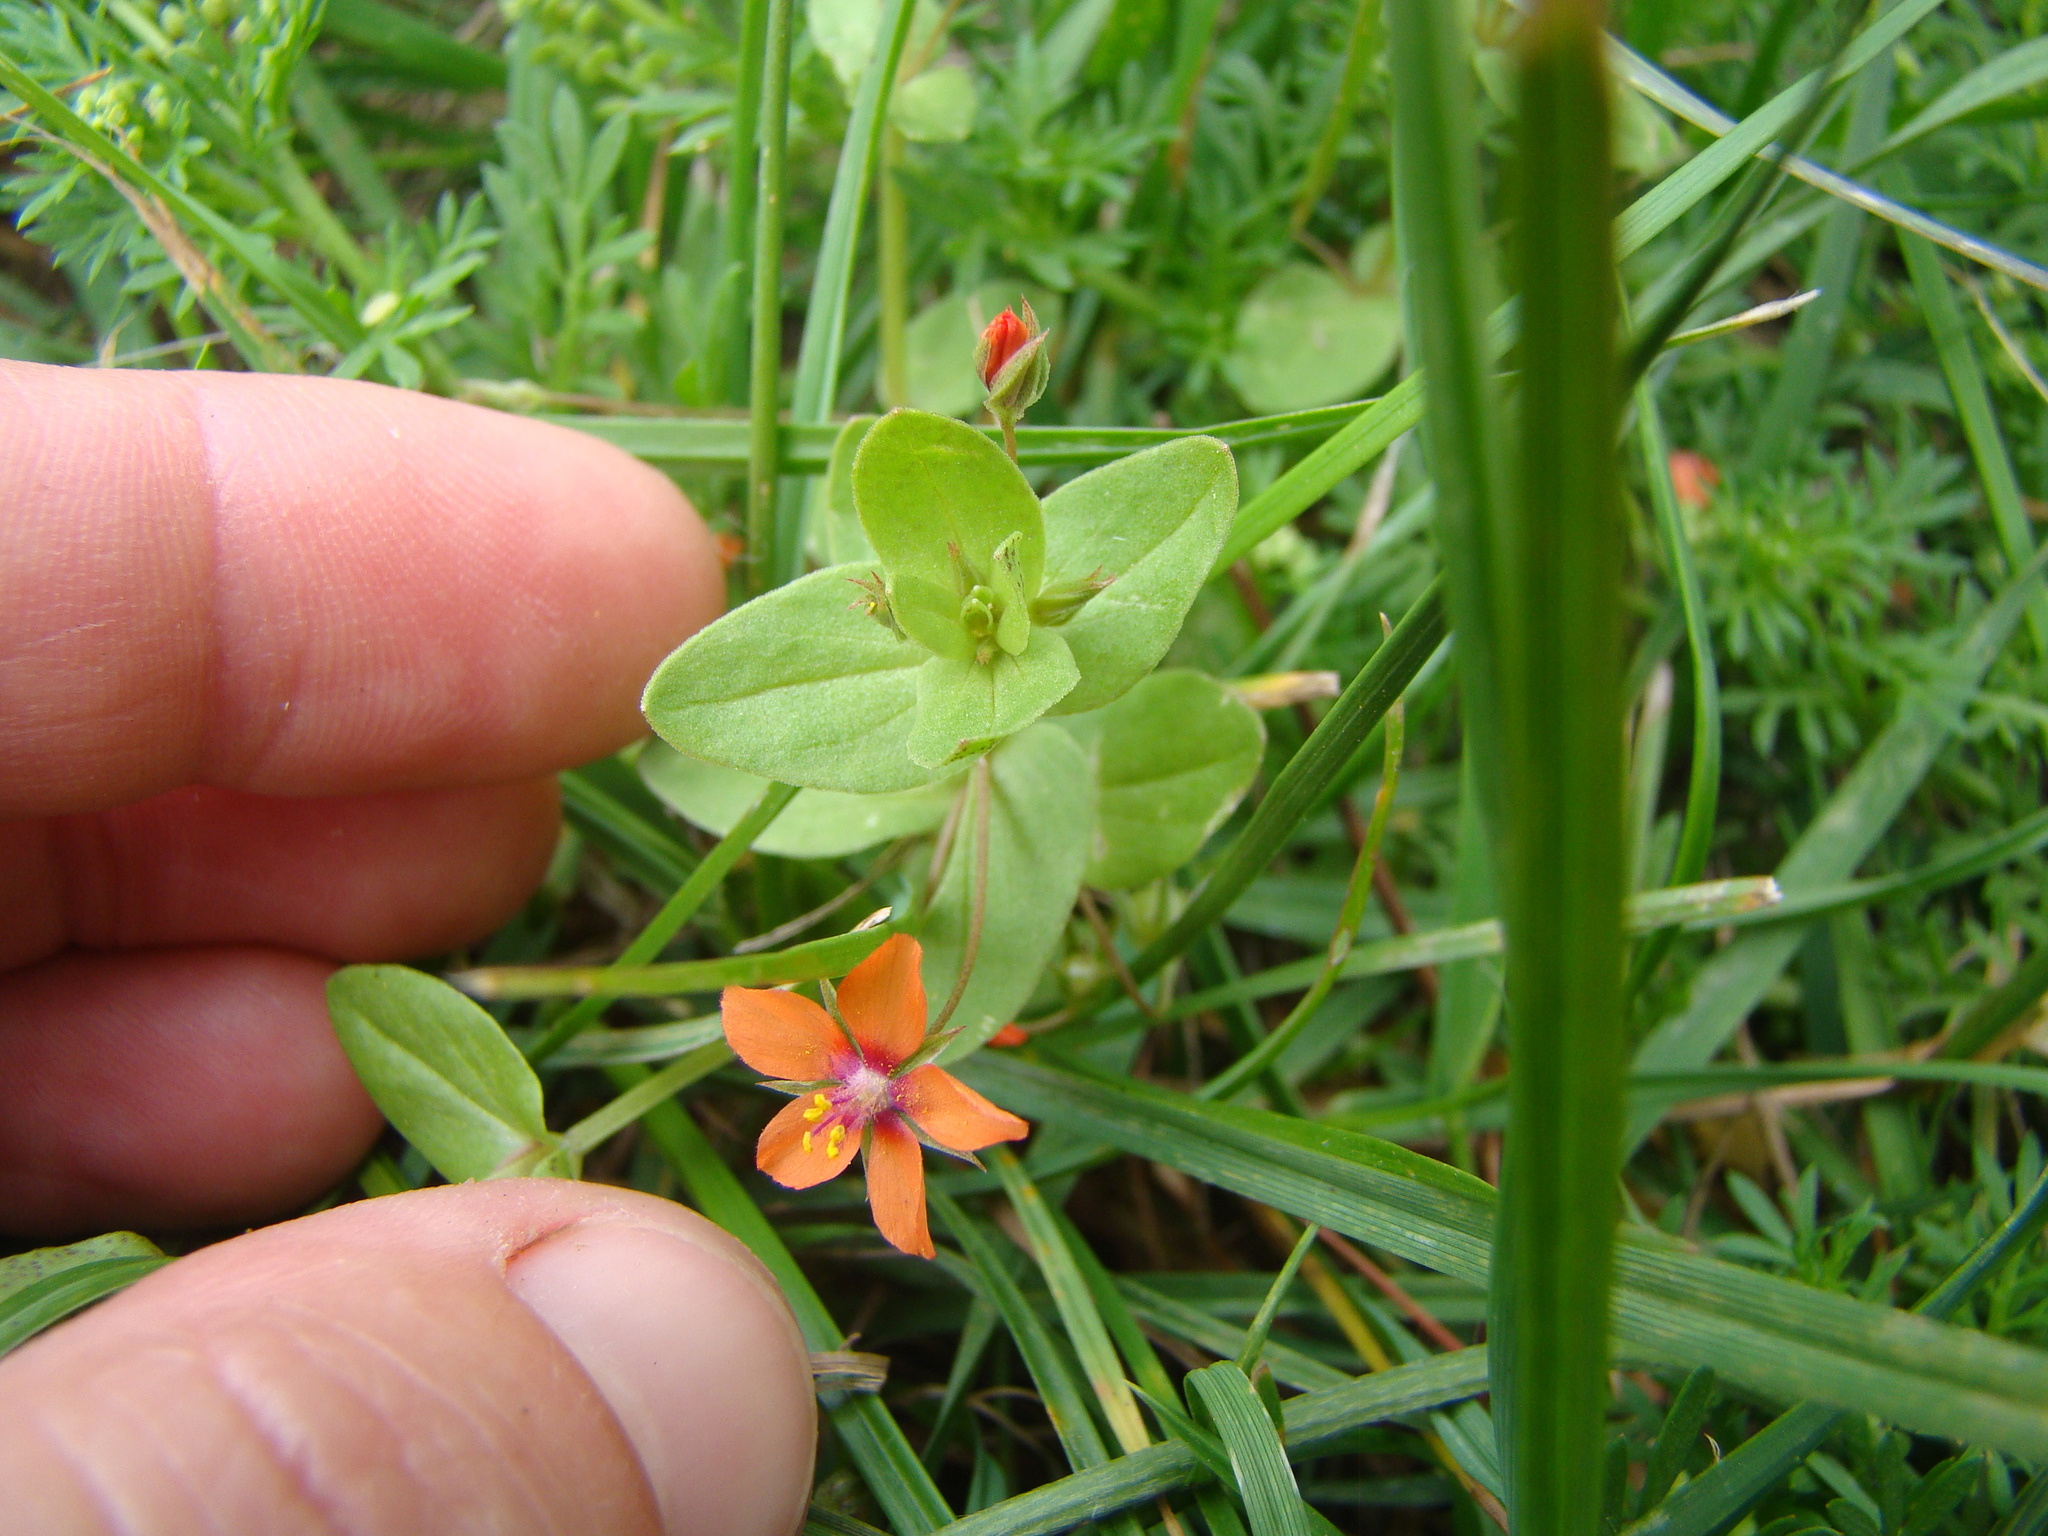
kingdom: Plantae
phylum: Tracheophyta
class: Magnoliopsida
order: Ericales
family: Primulaceae
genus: Lysimachia
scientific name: Lysimachia arvensis
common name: Scarlet pimpernel
